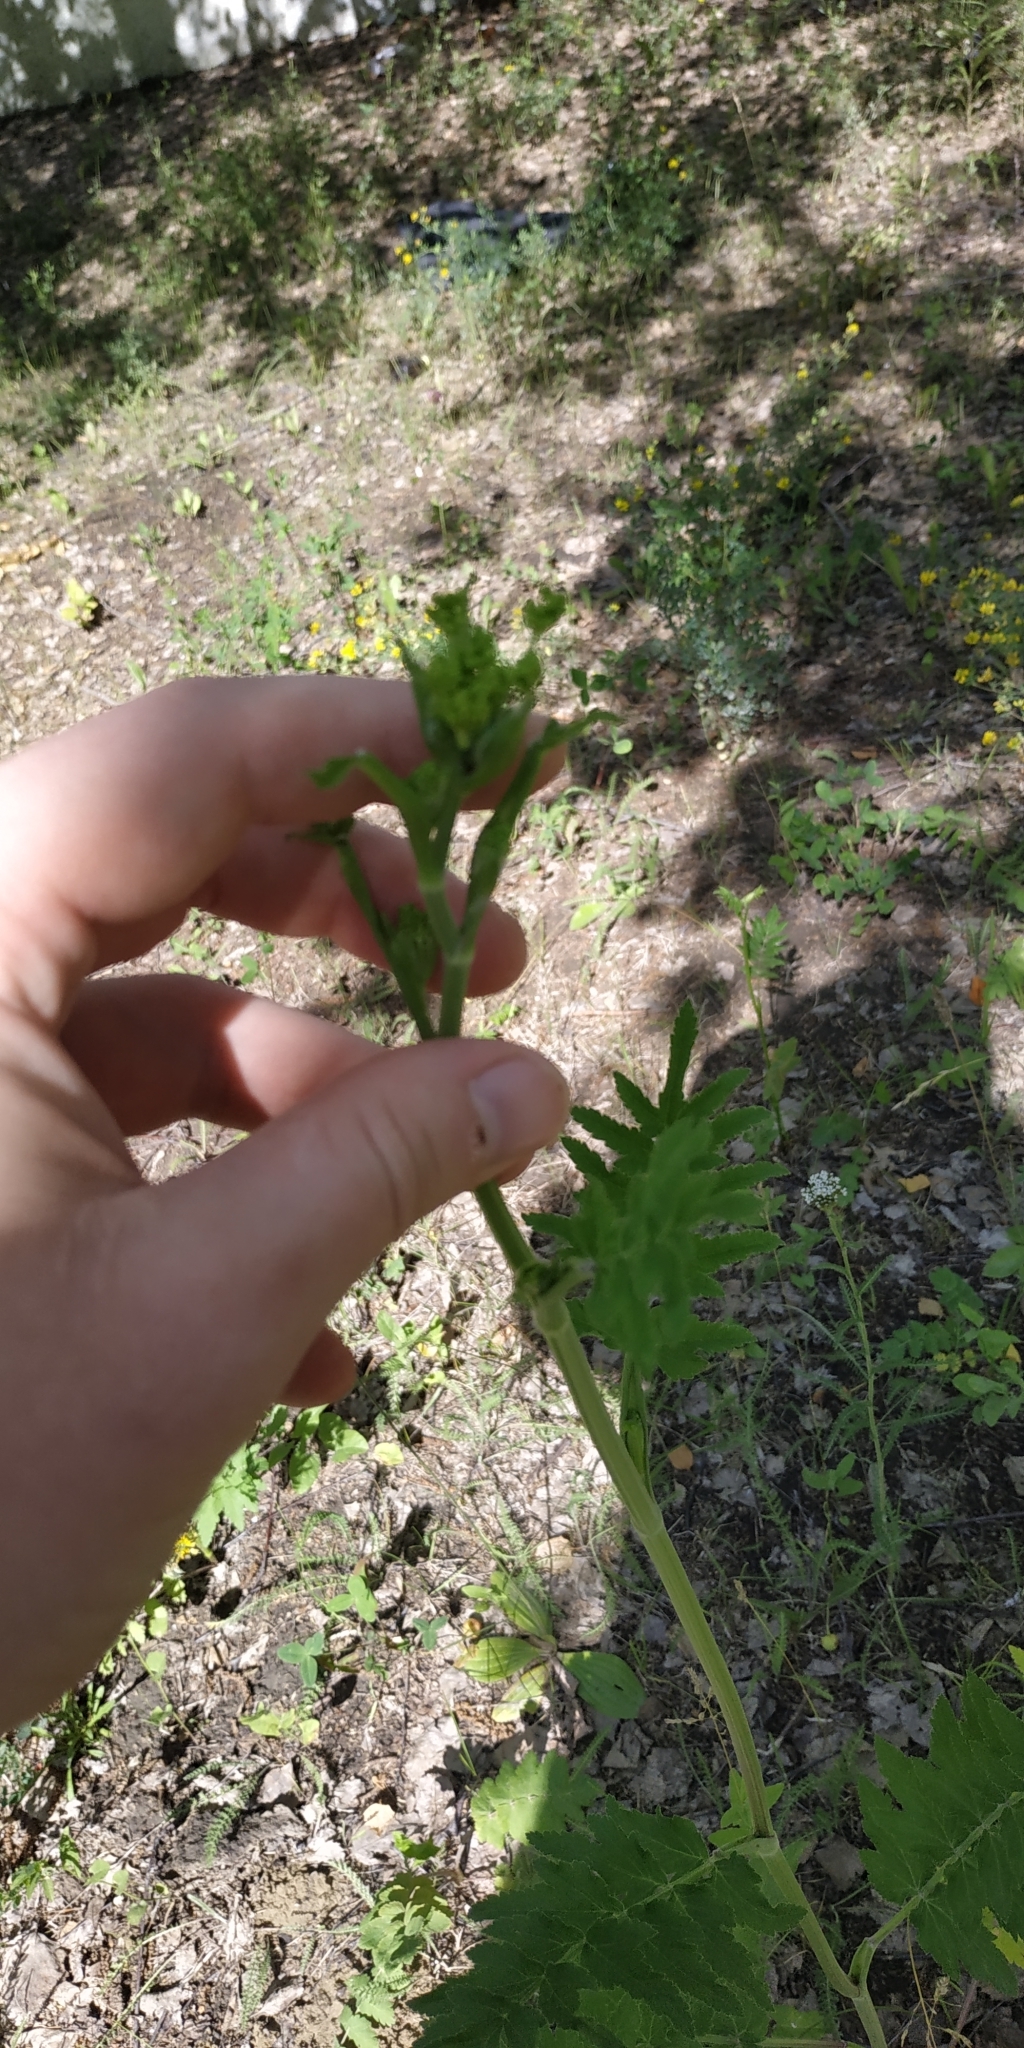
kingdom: Plantae
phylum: Tracheophyta
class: Magnoliopsida
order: Apiales
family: Apiaceae
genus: Pastinaca
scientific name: Pastinaca sativa
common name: Wild parsnip
